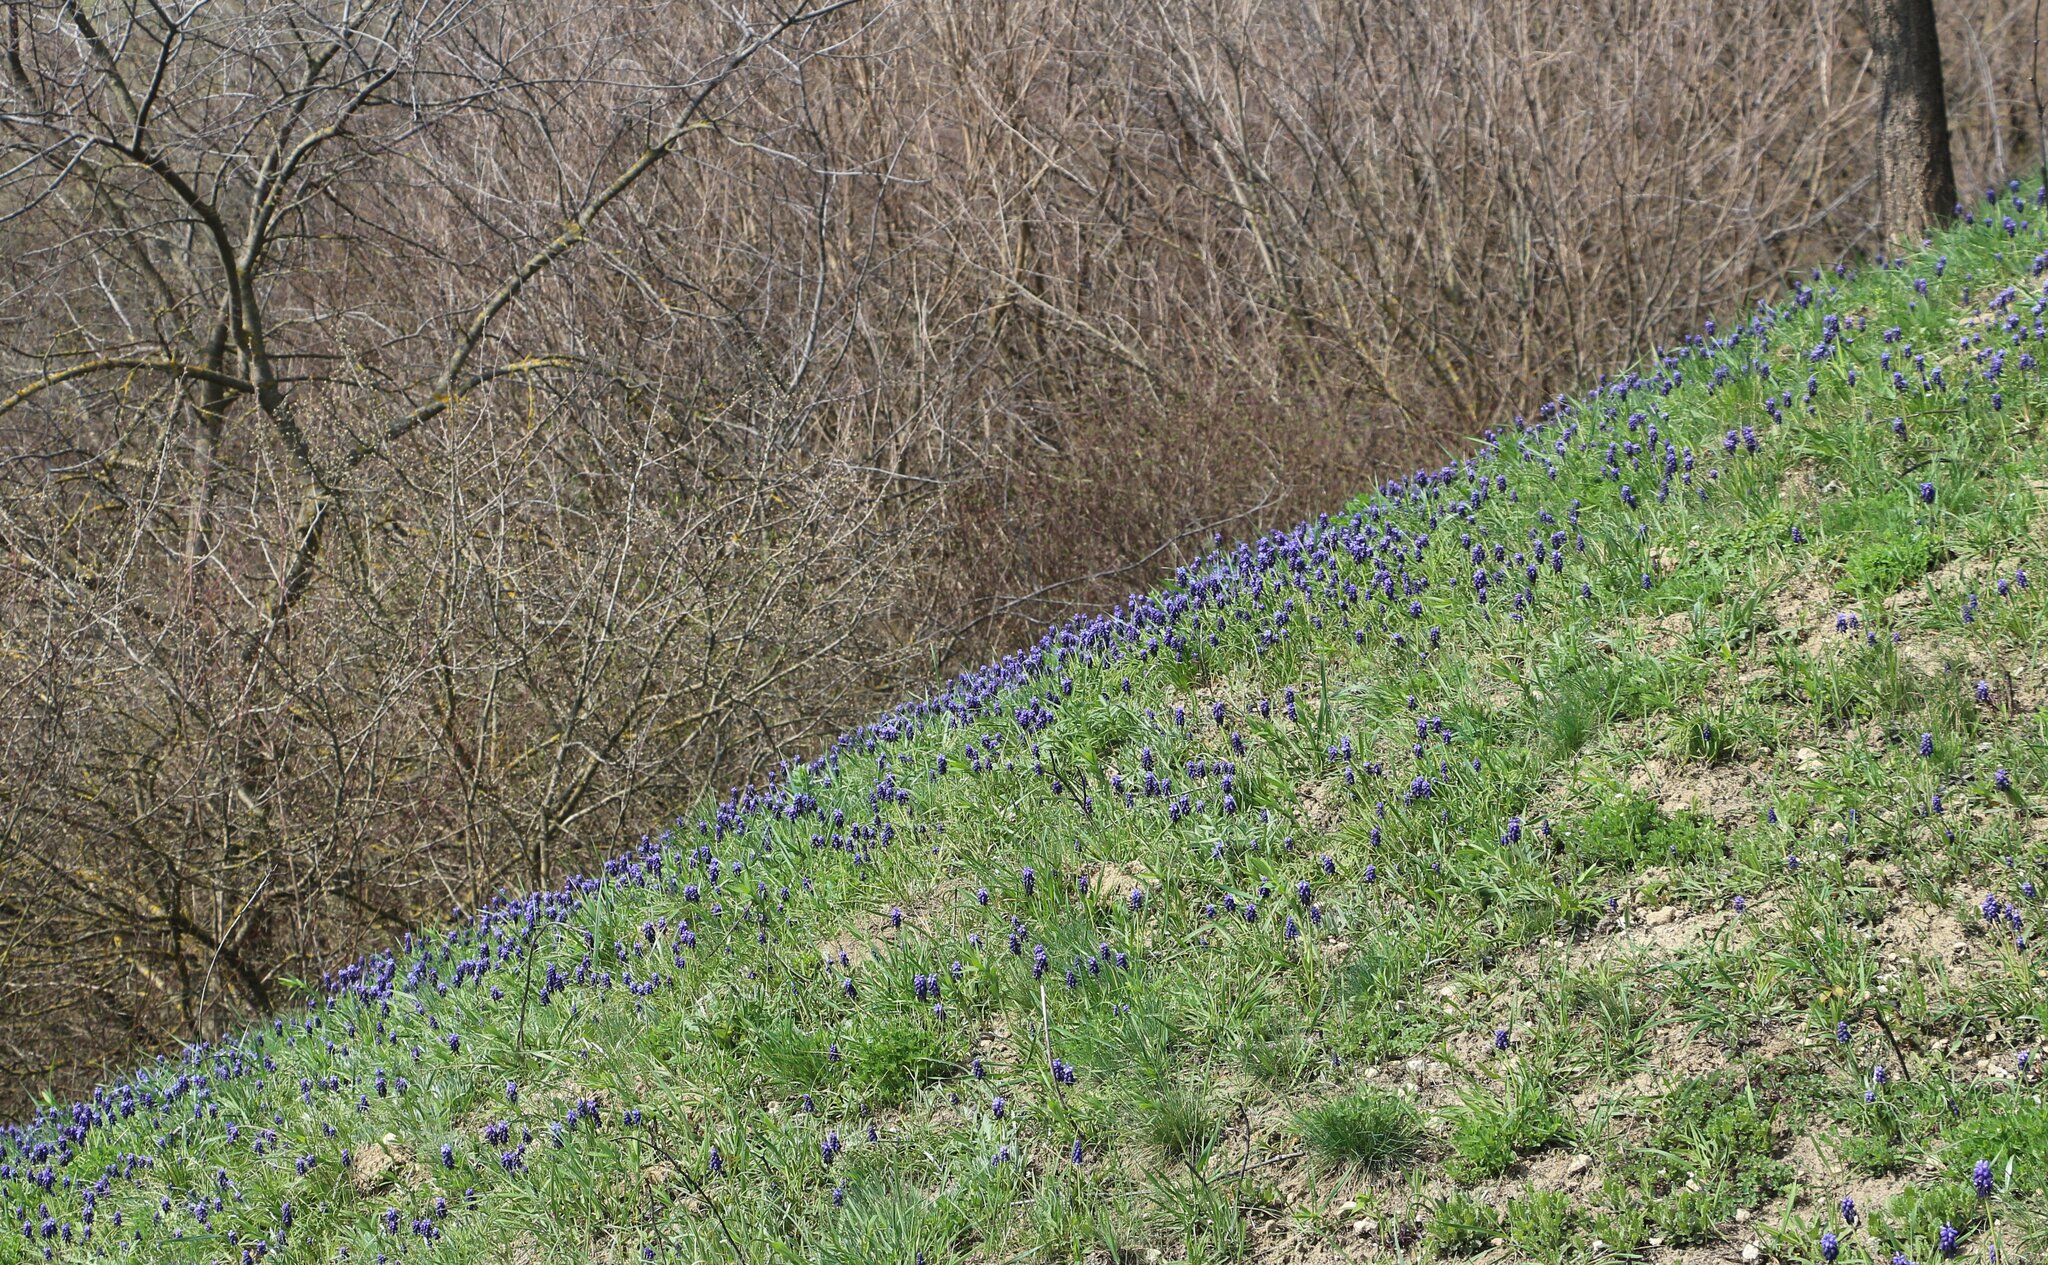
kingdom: Plantae
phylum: Tracheophyta
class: Liliopsida
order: Asparagales
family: Asparagaceae
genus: Muscari
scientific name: Muscari neglectum
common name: Grape-hyacinth
